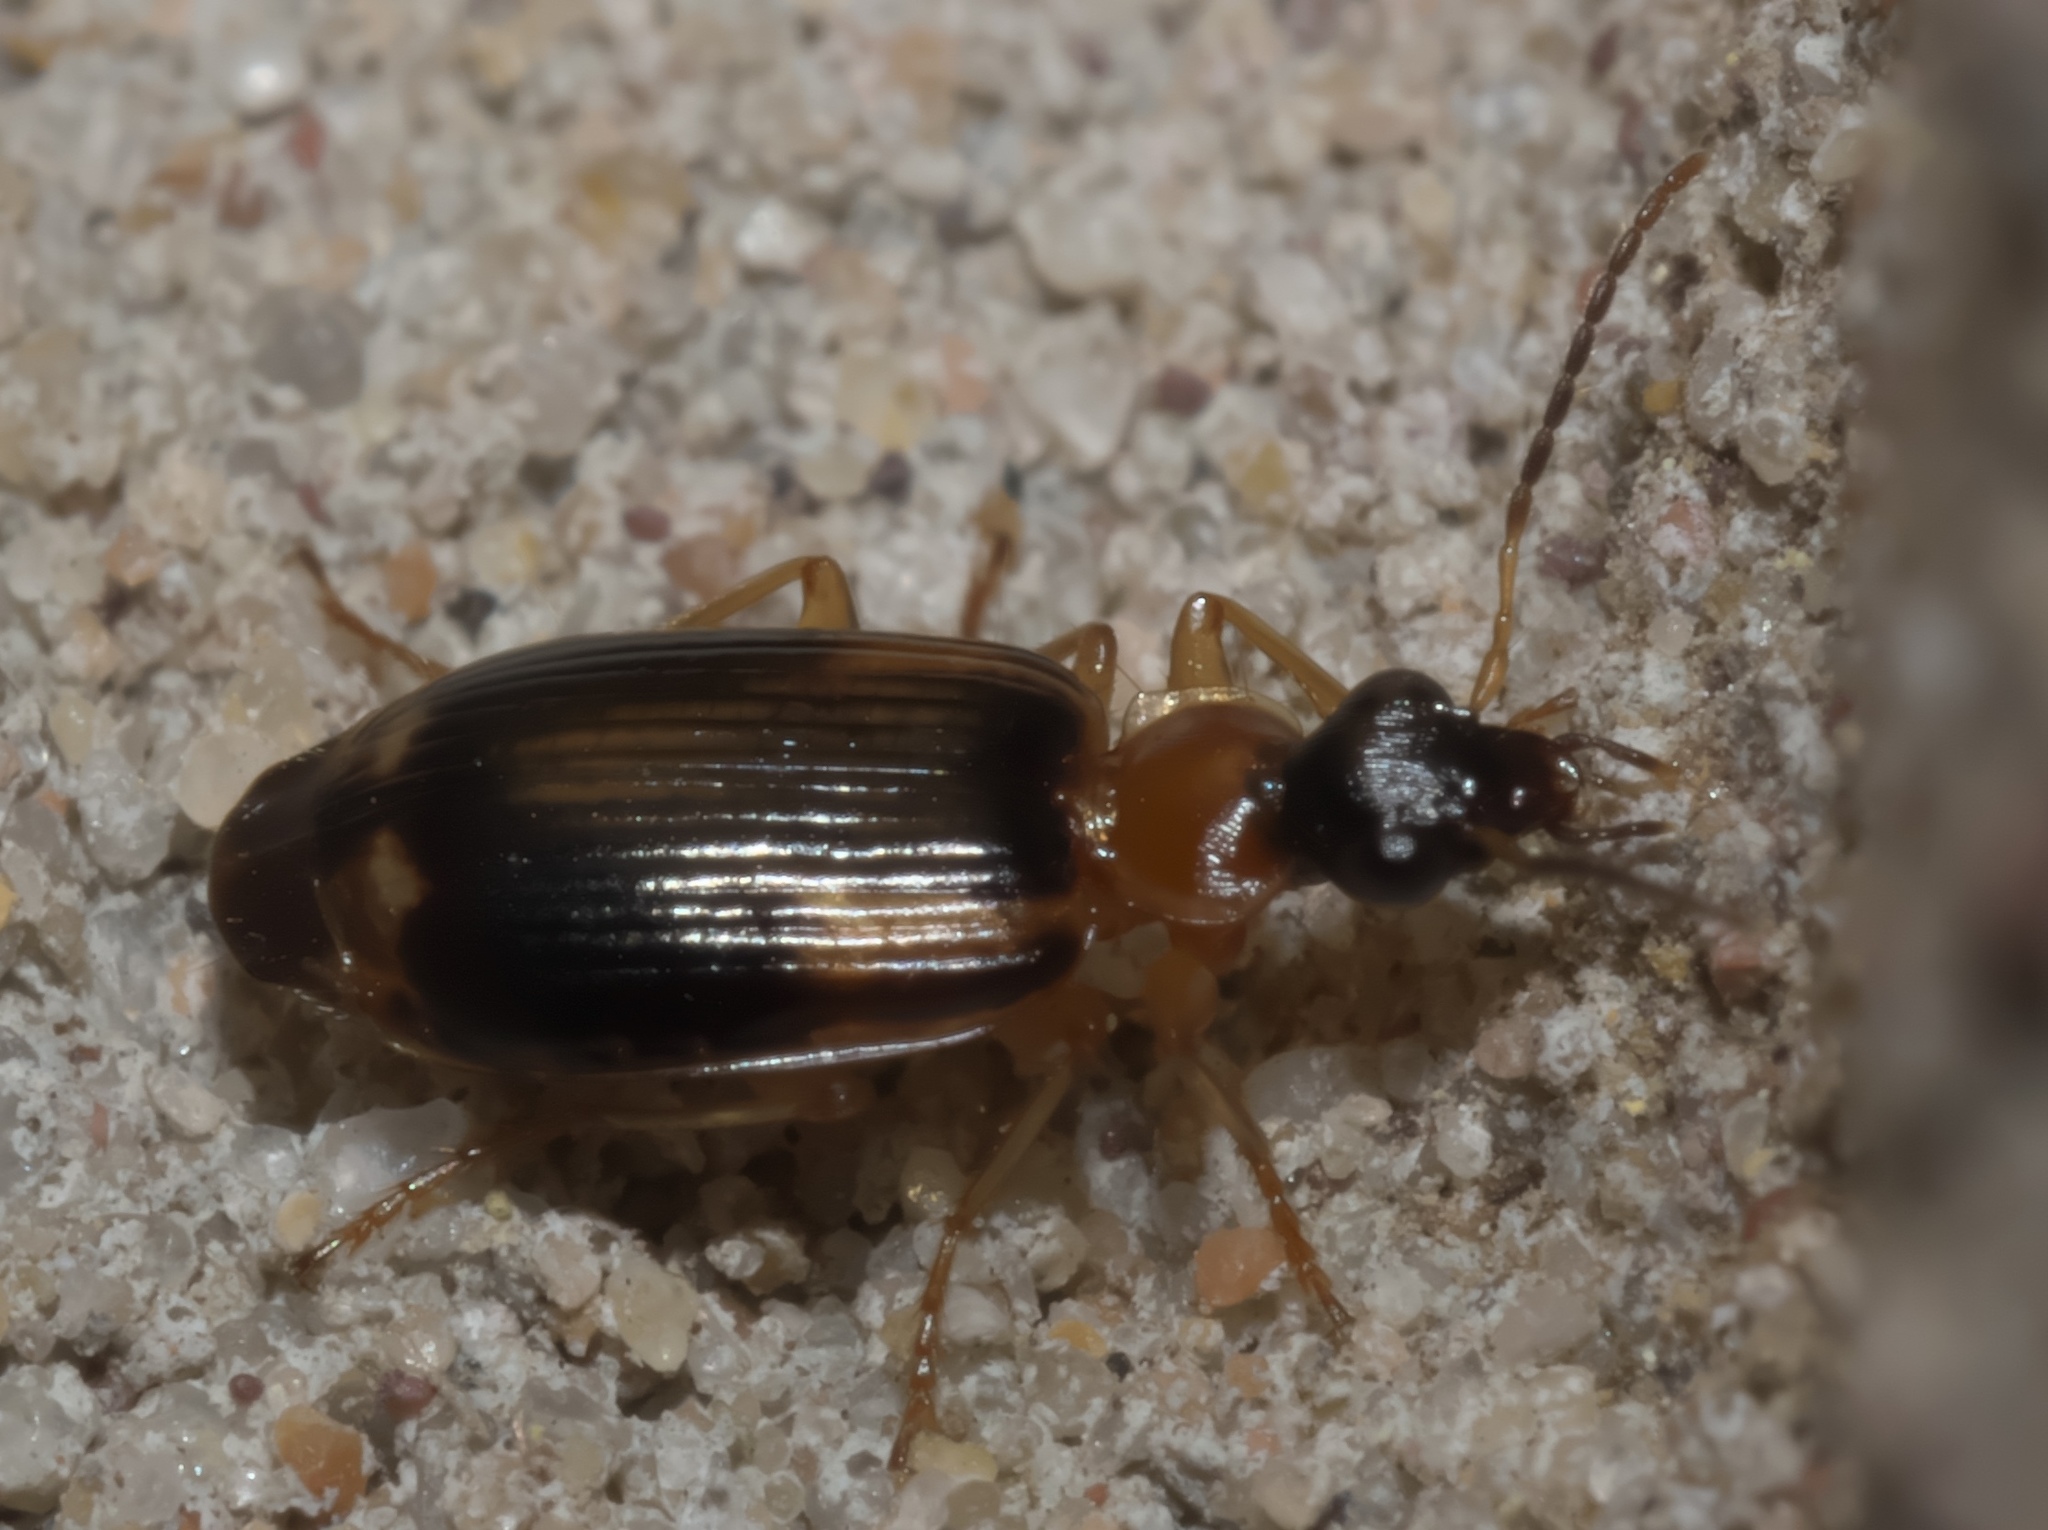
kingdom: Animalia
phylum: Arthropoda
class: Insecta
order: Coleoptera
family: Carabidae
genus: Lebia
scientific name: Lebia analis
